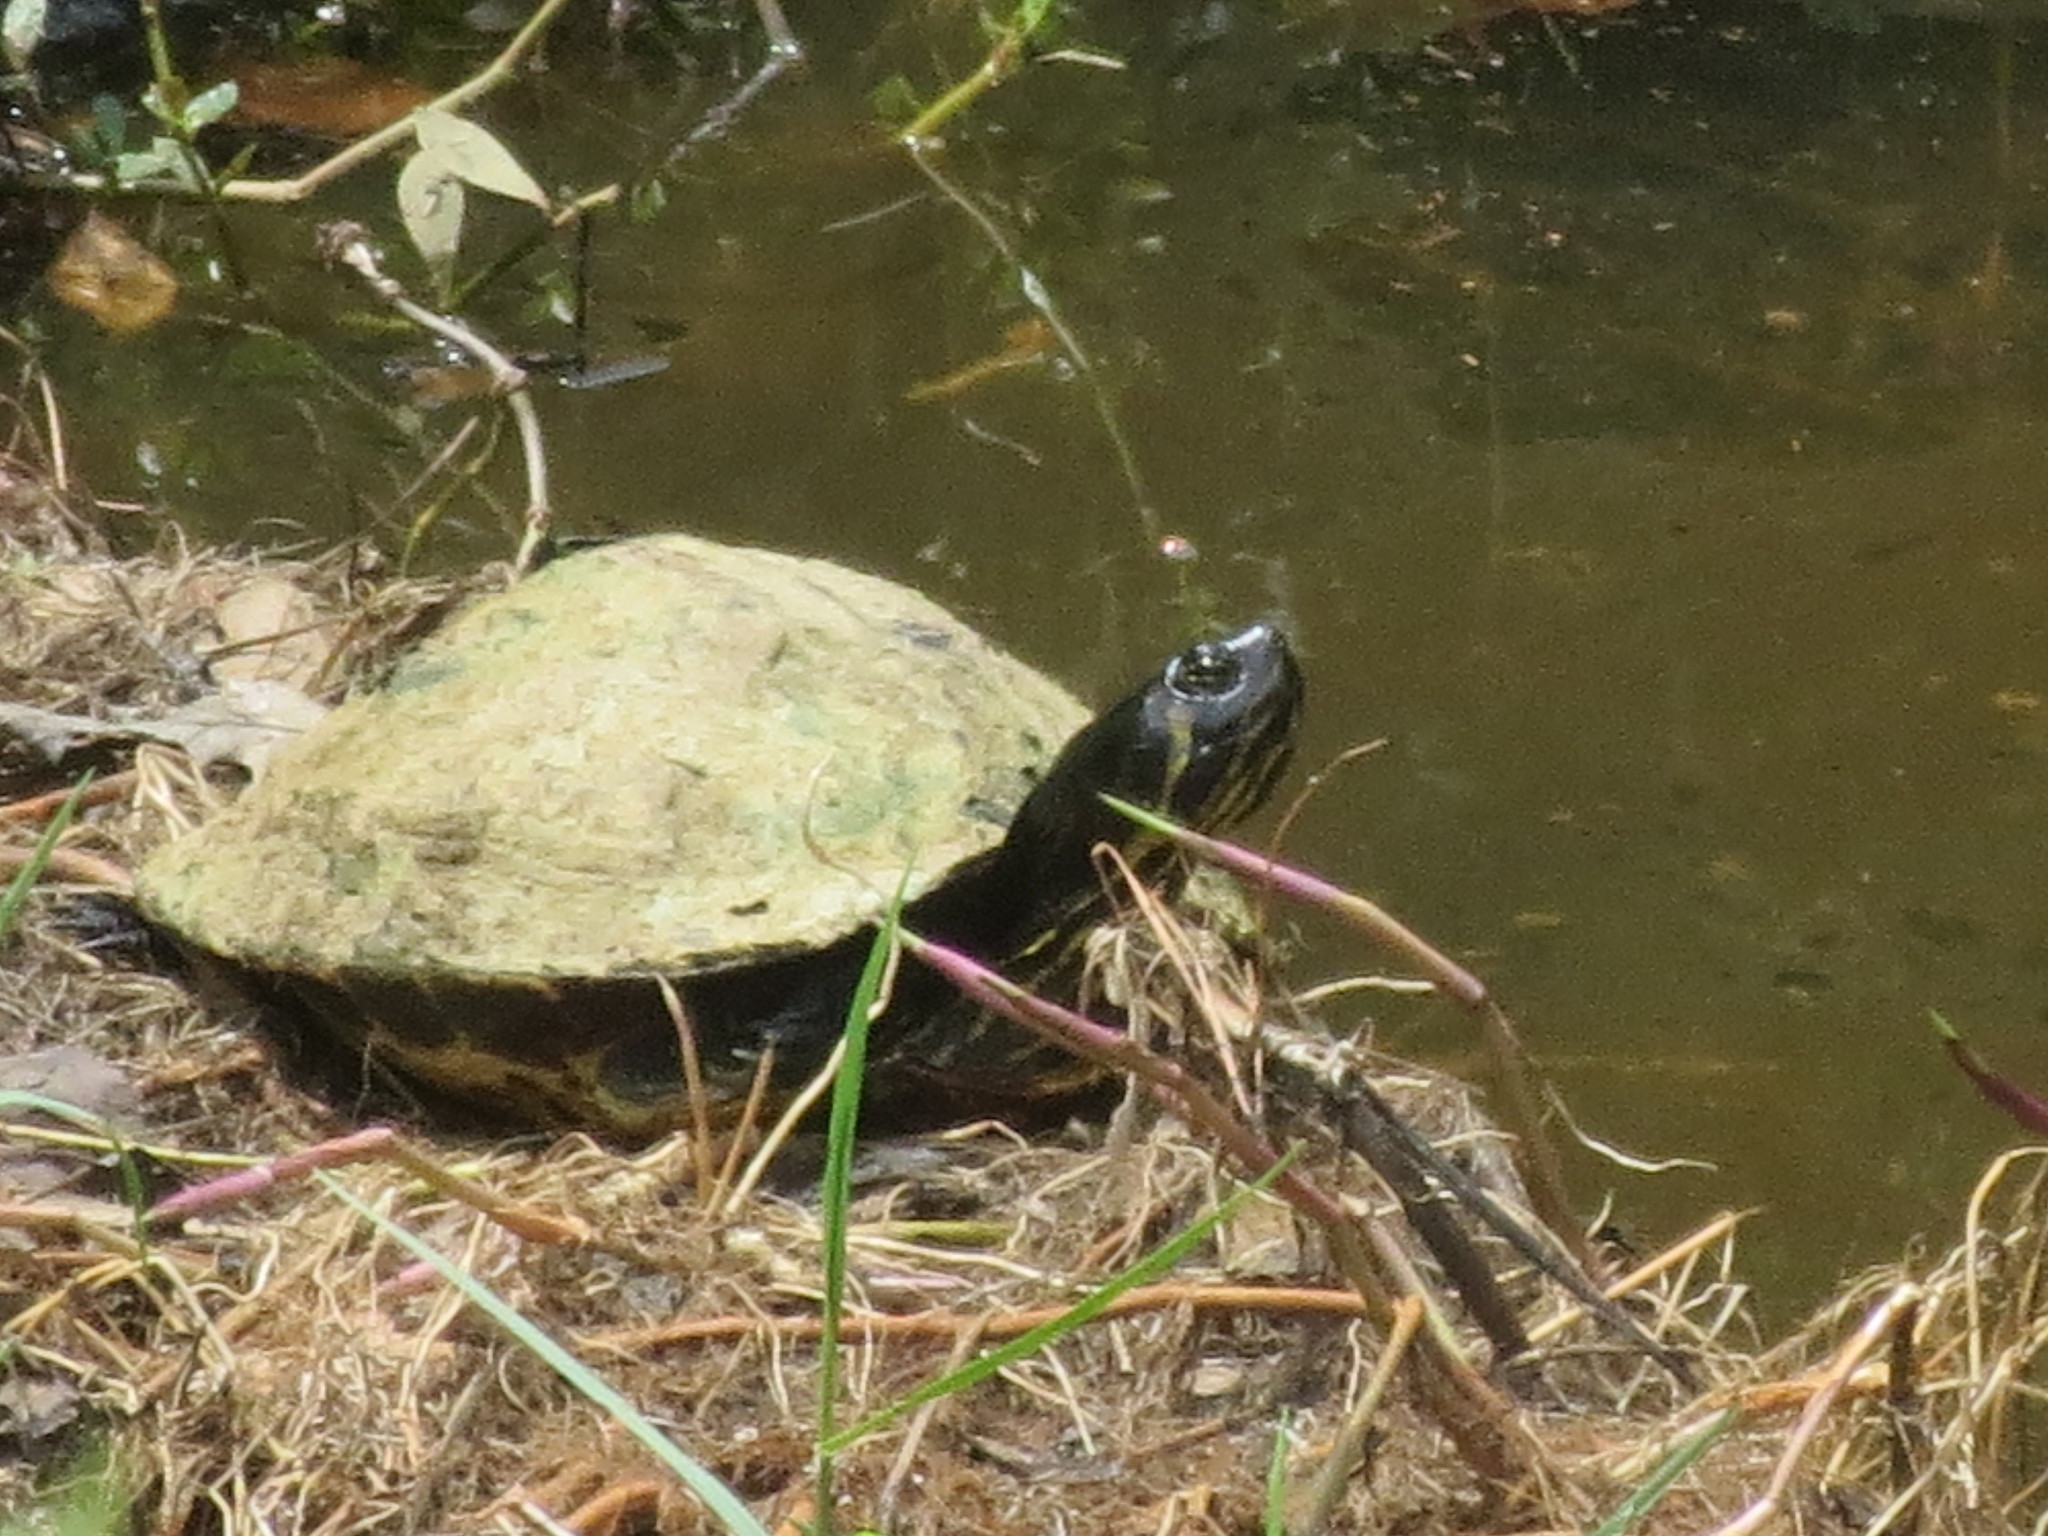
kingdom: Animalia
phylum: Chordata
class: Testudines
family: Emydidae
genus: Trachemys
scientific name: Trachemys scripta
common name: Slider
